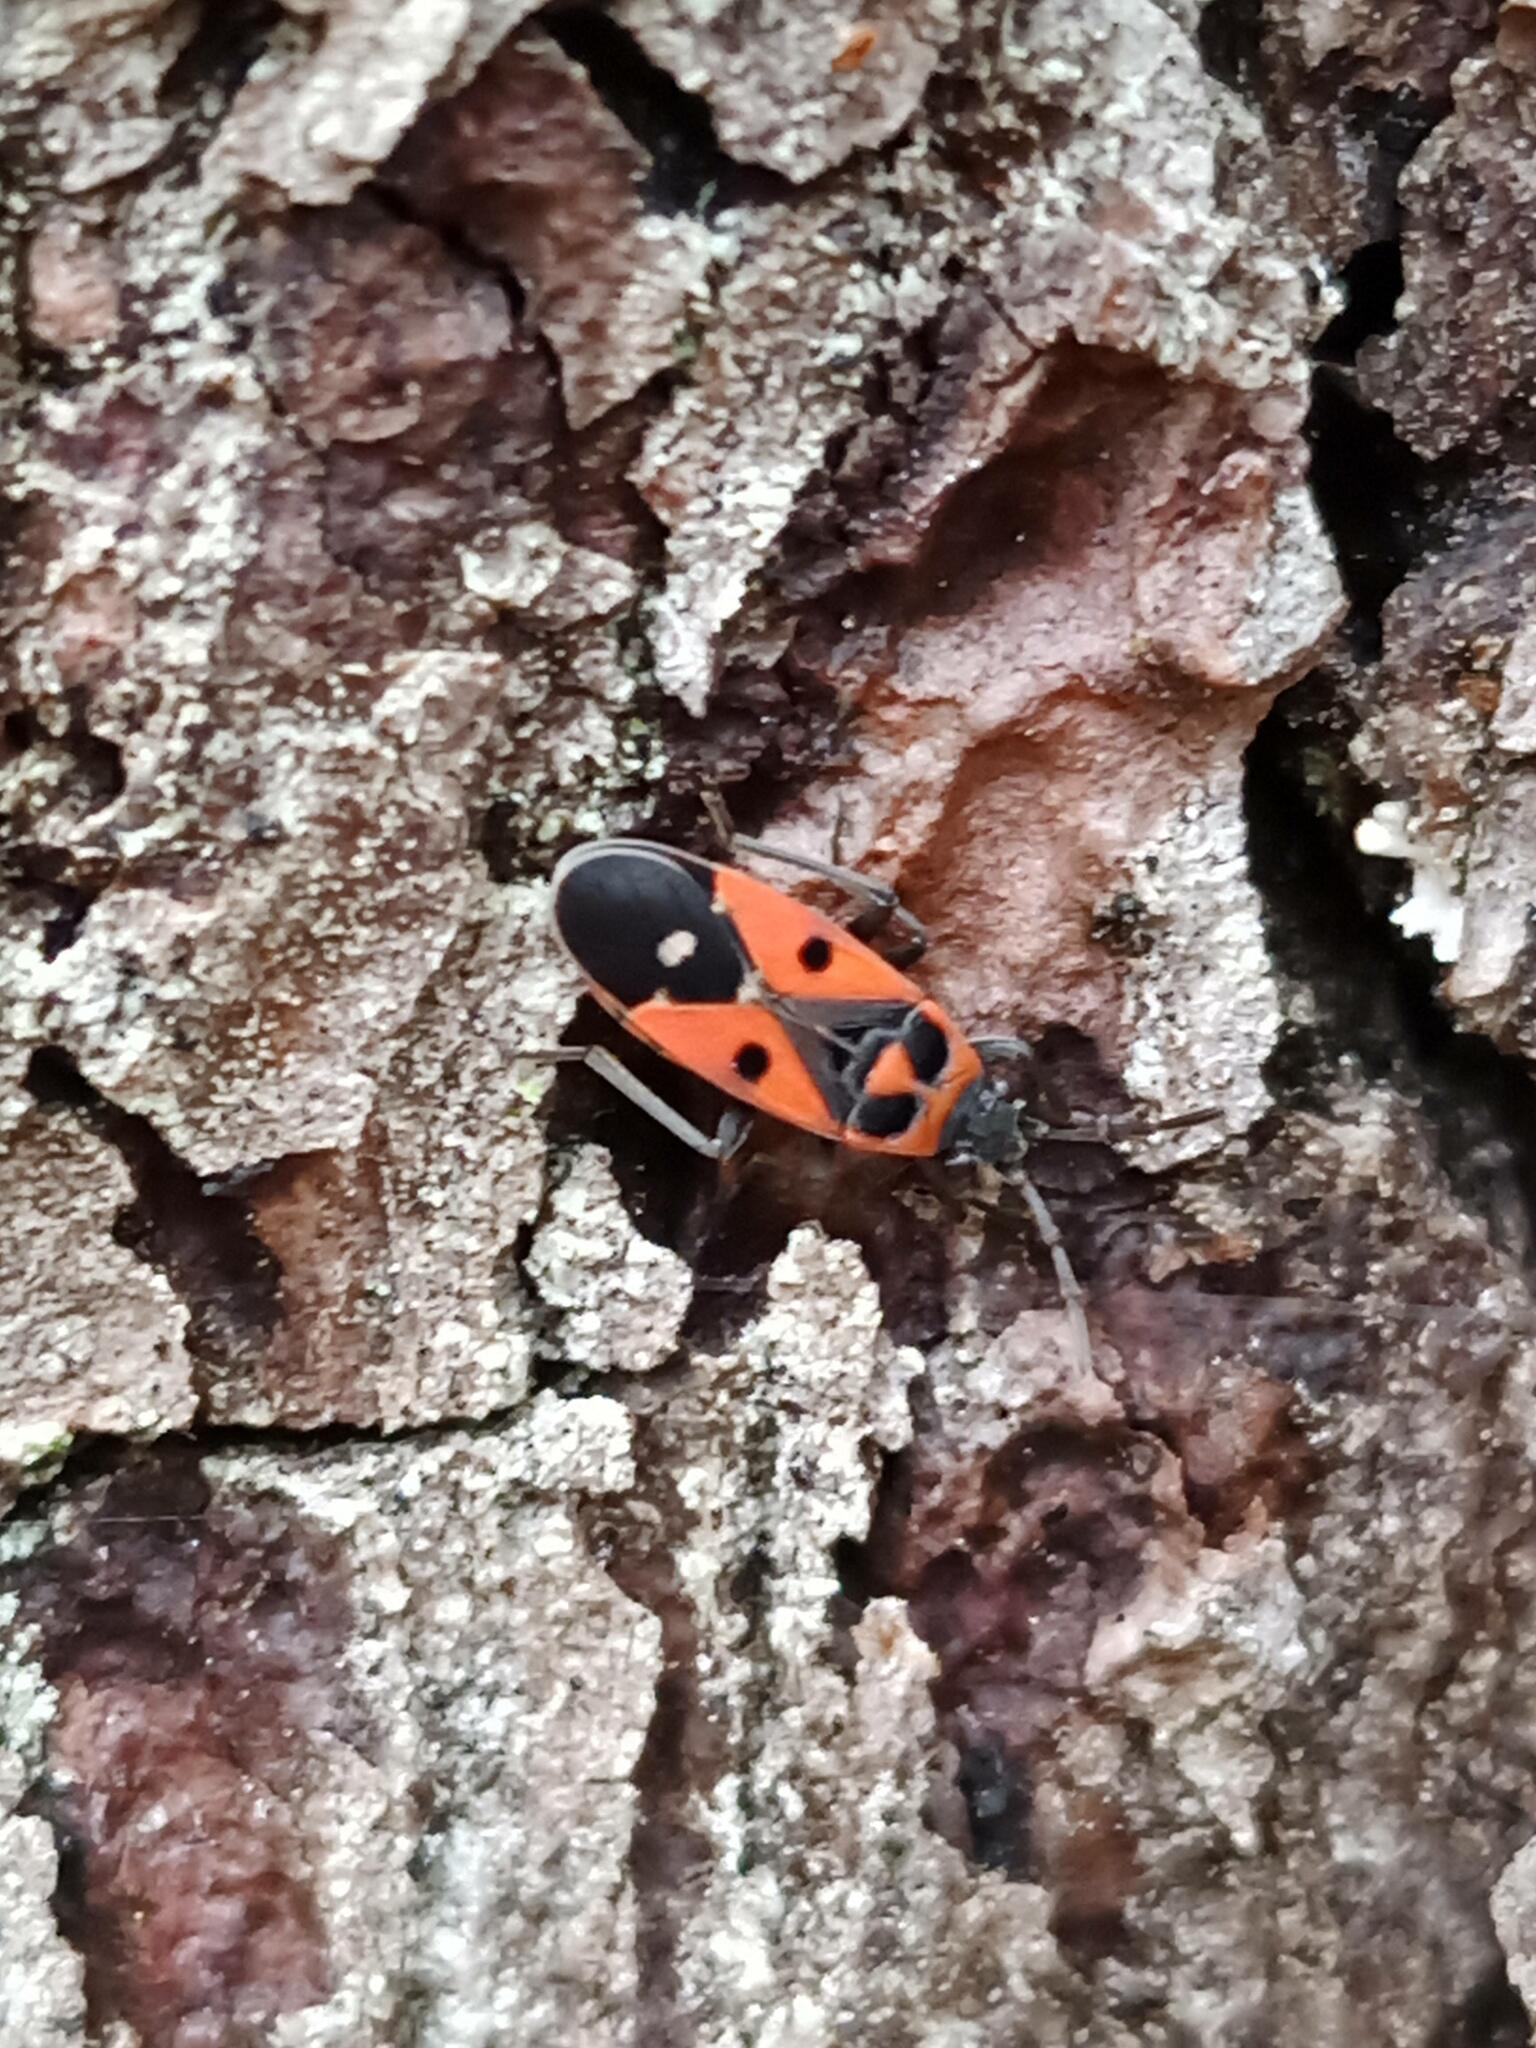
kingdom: Animalia
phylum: Arthropoda
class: Insecta
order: Hemiptera
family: Lygaeidae
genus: Melanocoryphus
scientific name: Melanocoryphus albomaculatus
